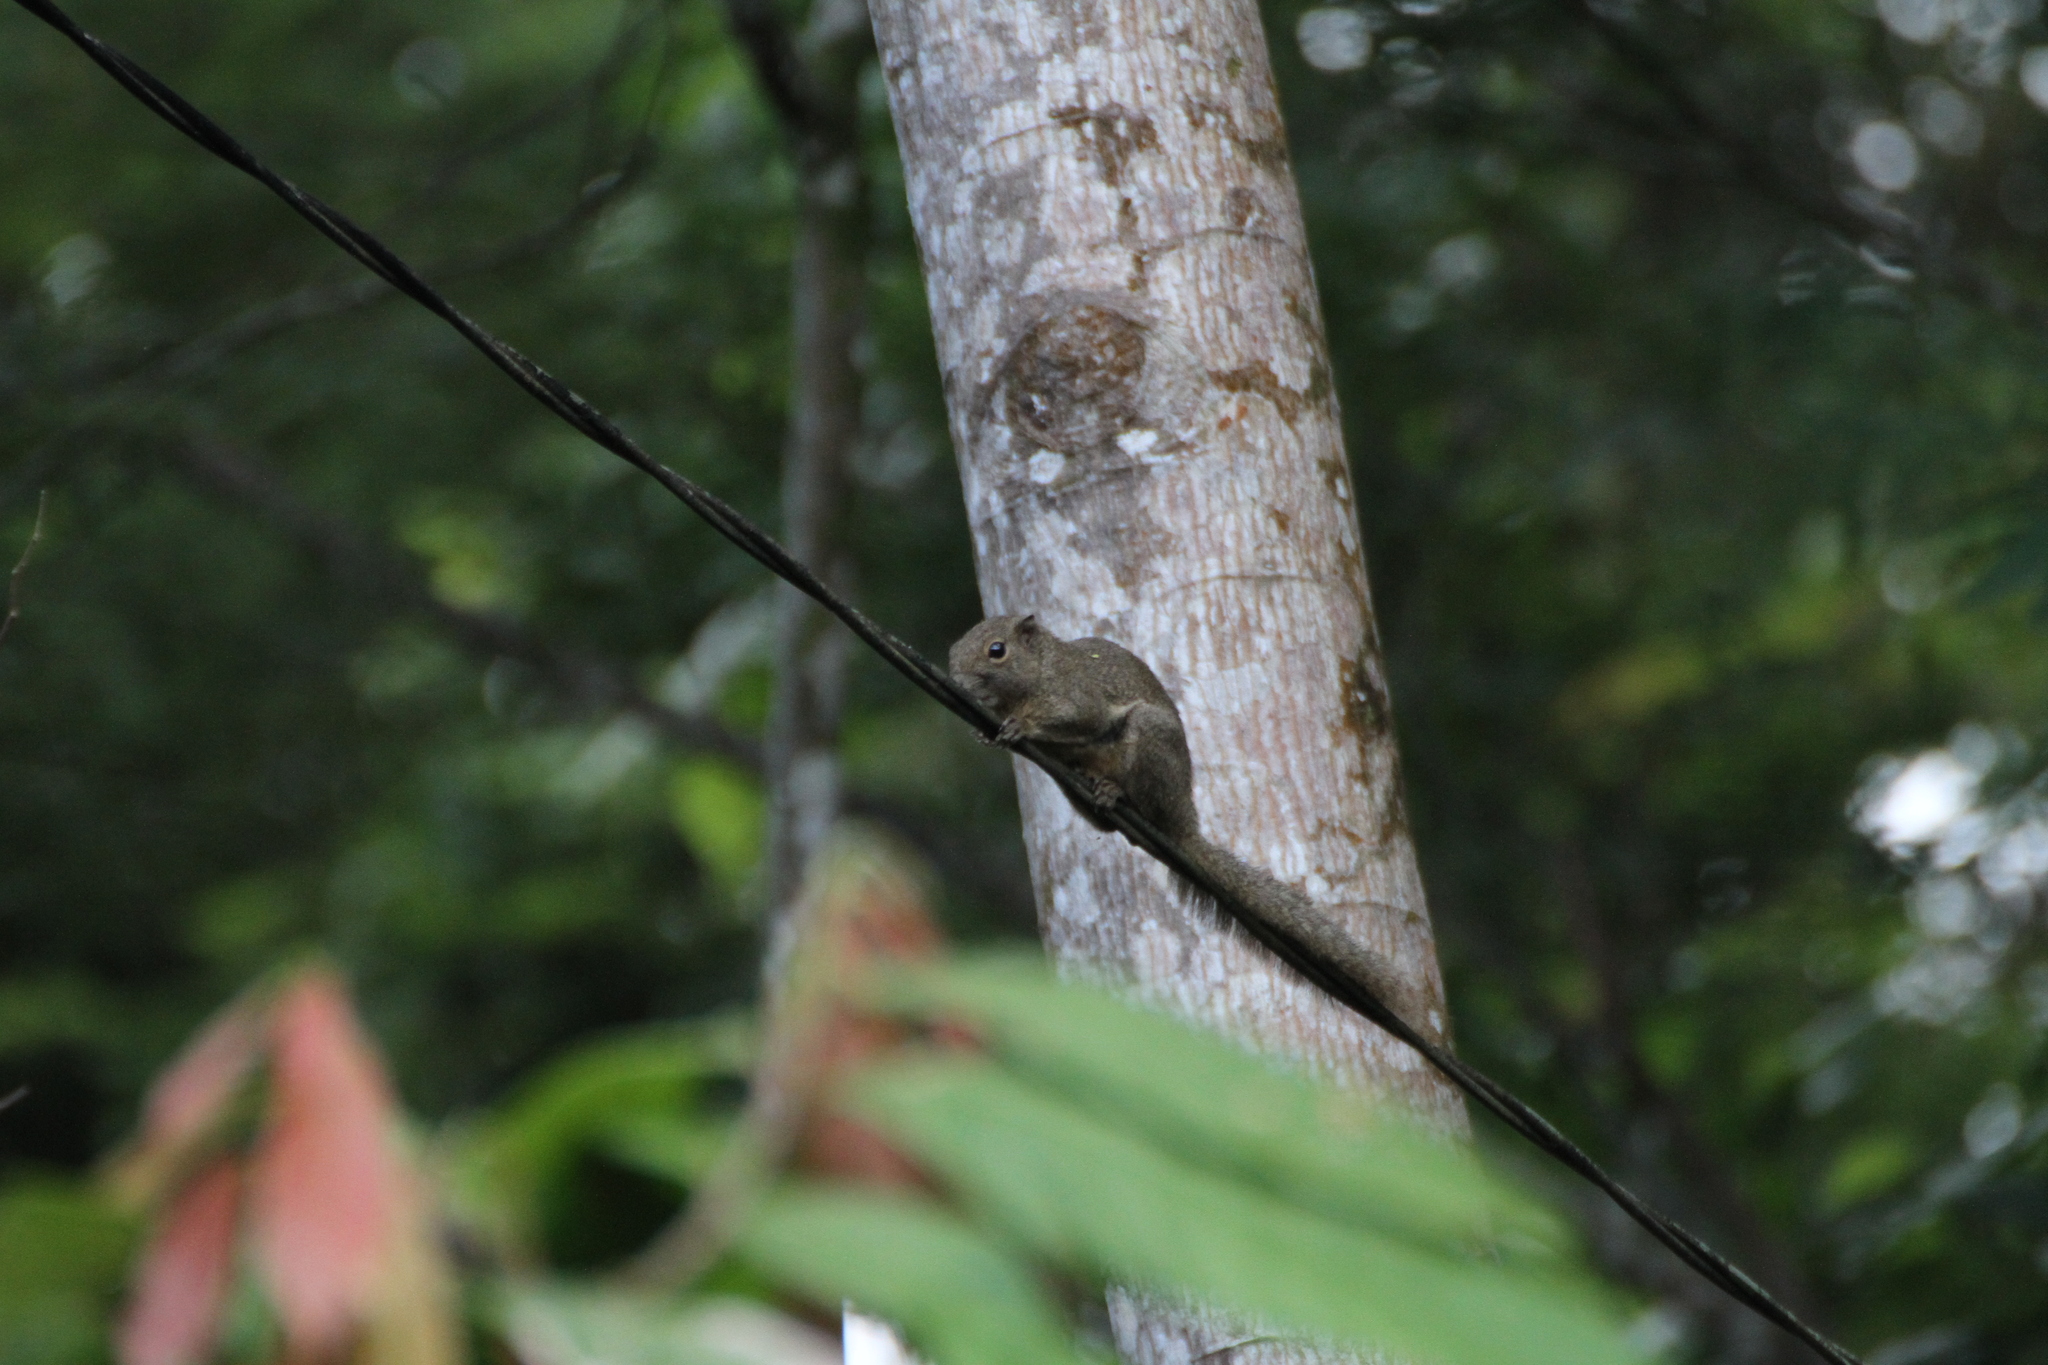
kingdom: Animalia
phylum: Chordata
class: Mammalia
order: Rodentia
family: Sciuridae
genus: Callosciurus
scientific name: Callosciurus notatus
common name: Plantain squirrel
